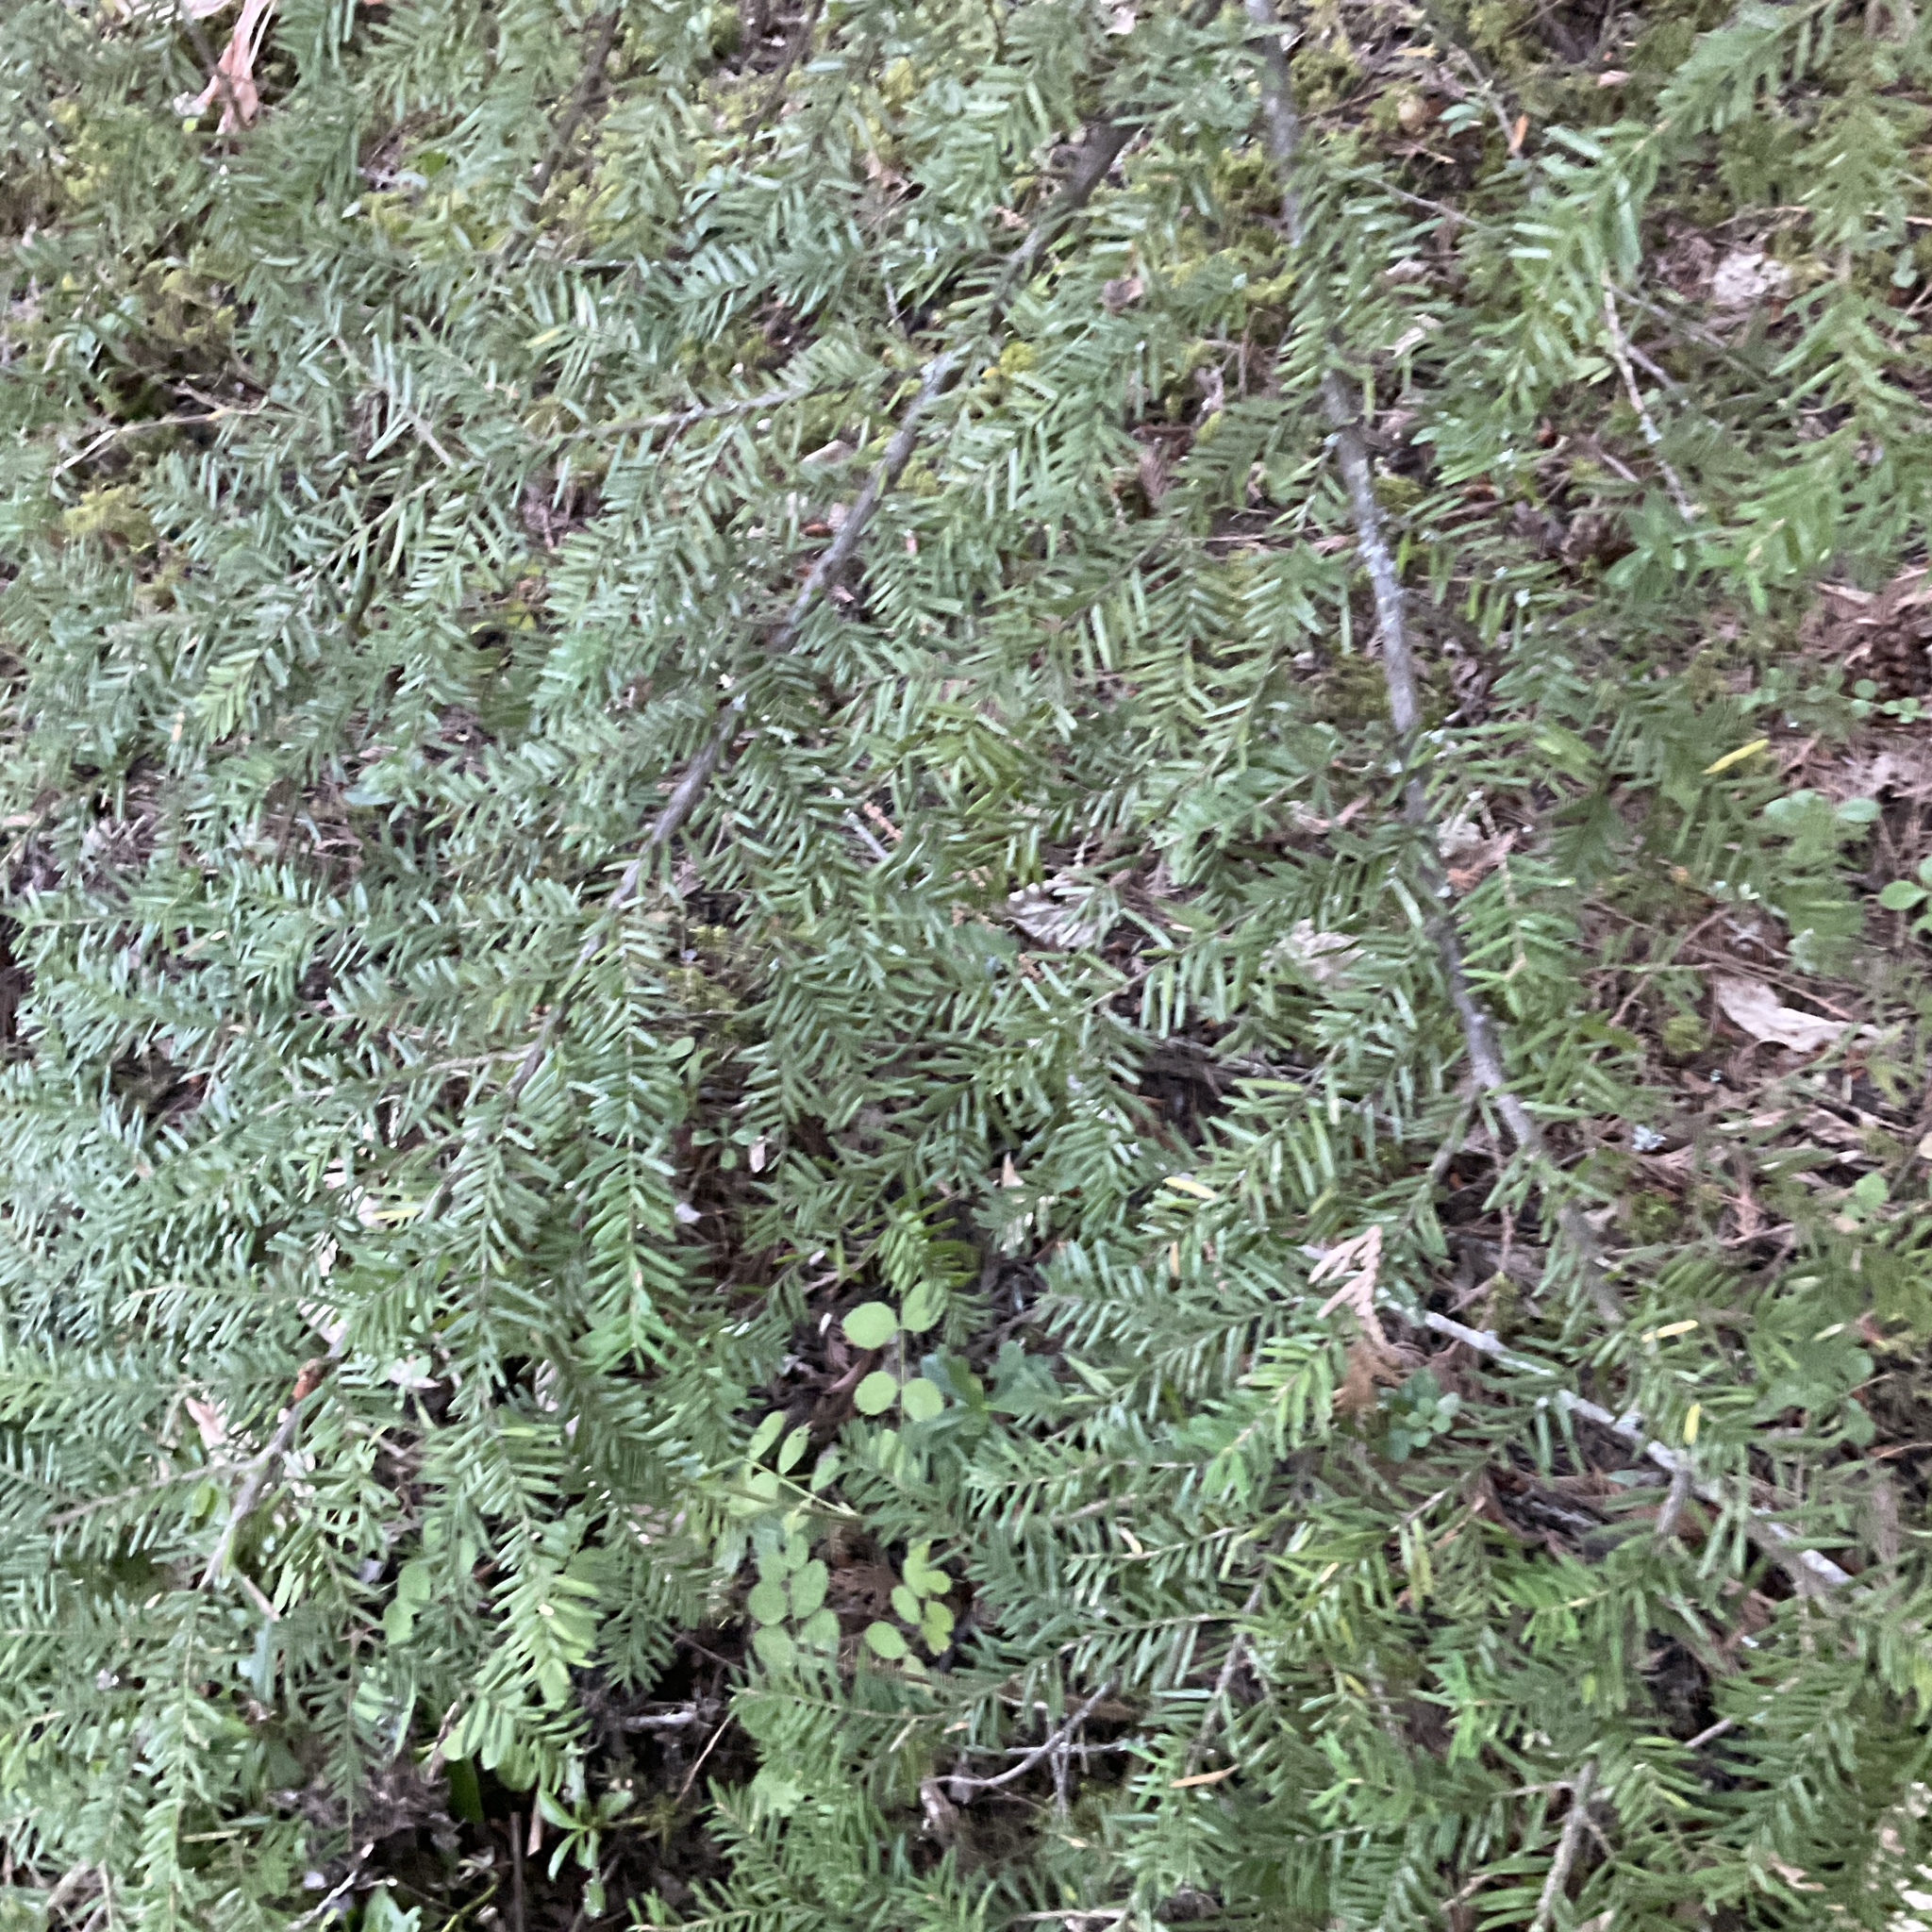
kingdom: Plantae
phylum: Tracheophyta
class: Pinopsida
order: Pinales
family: Pinaceae
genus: Tsuga
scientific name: Tsuga heterophylla
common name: Western hemlock
